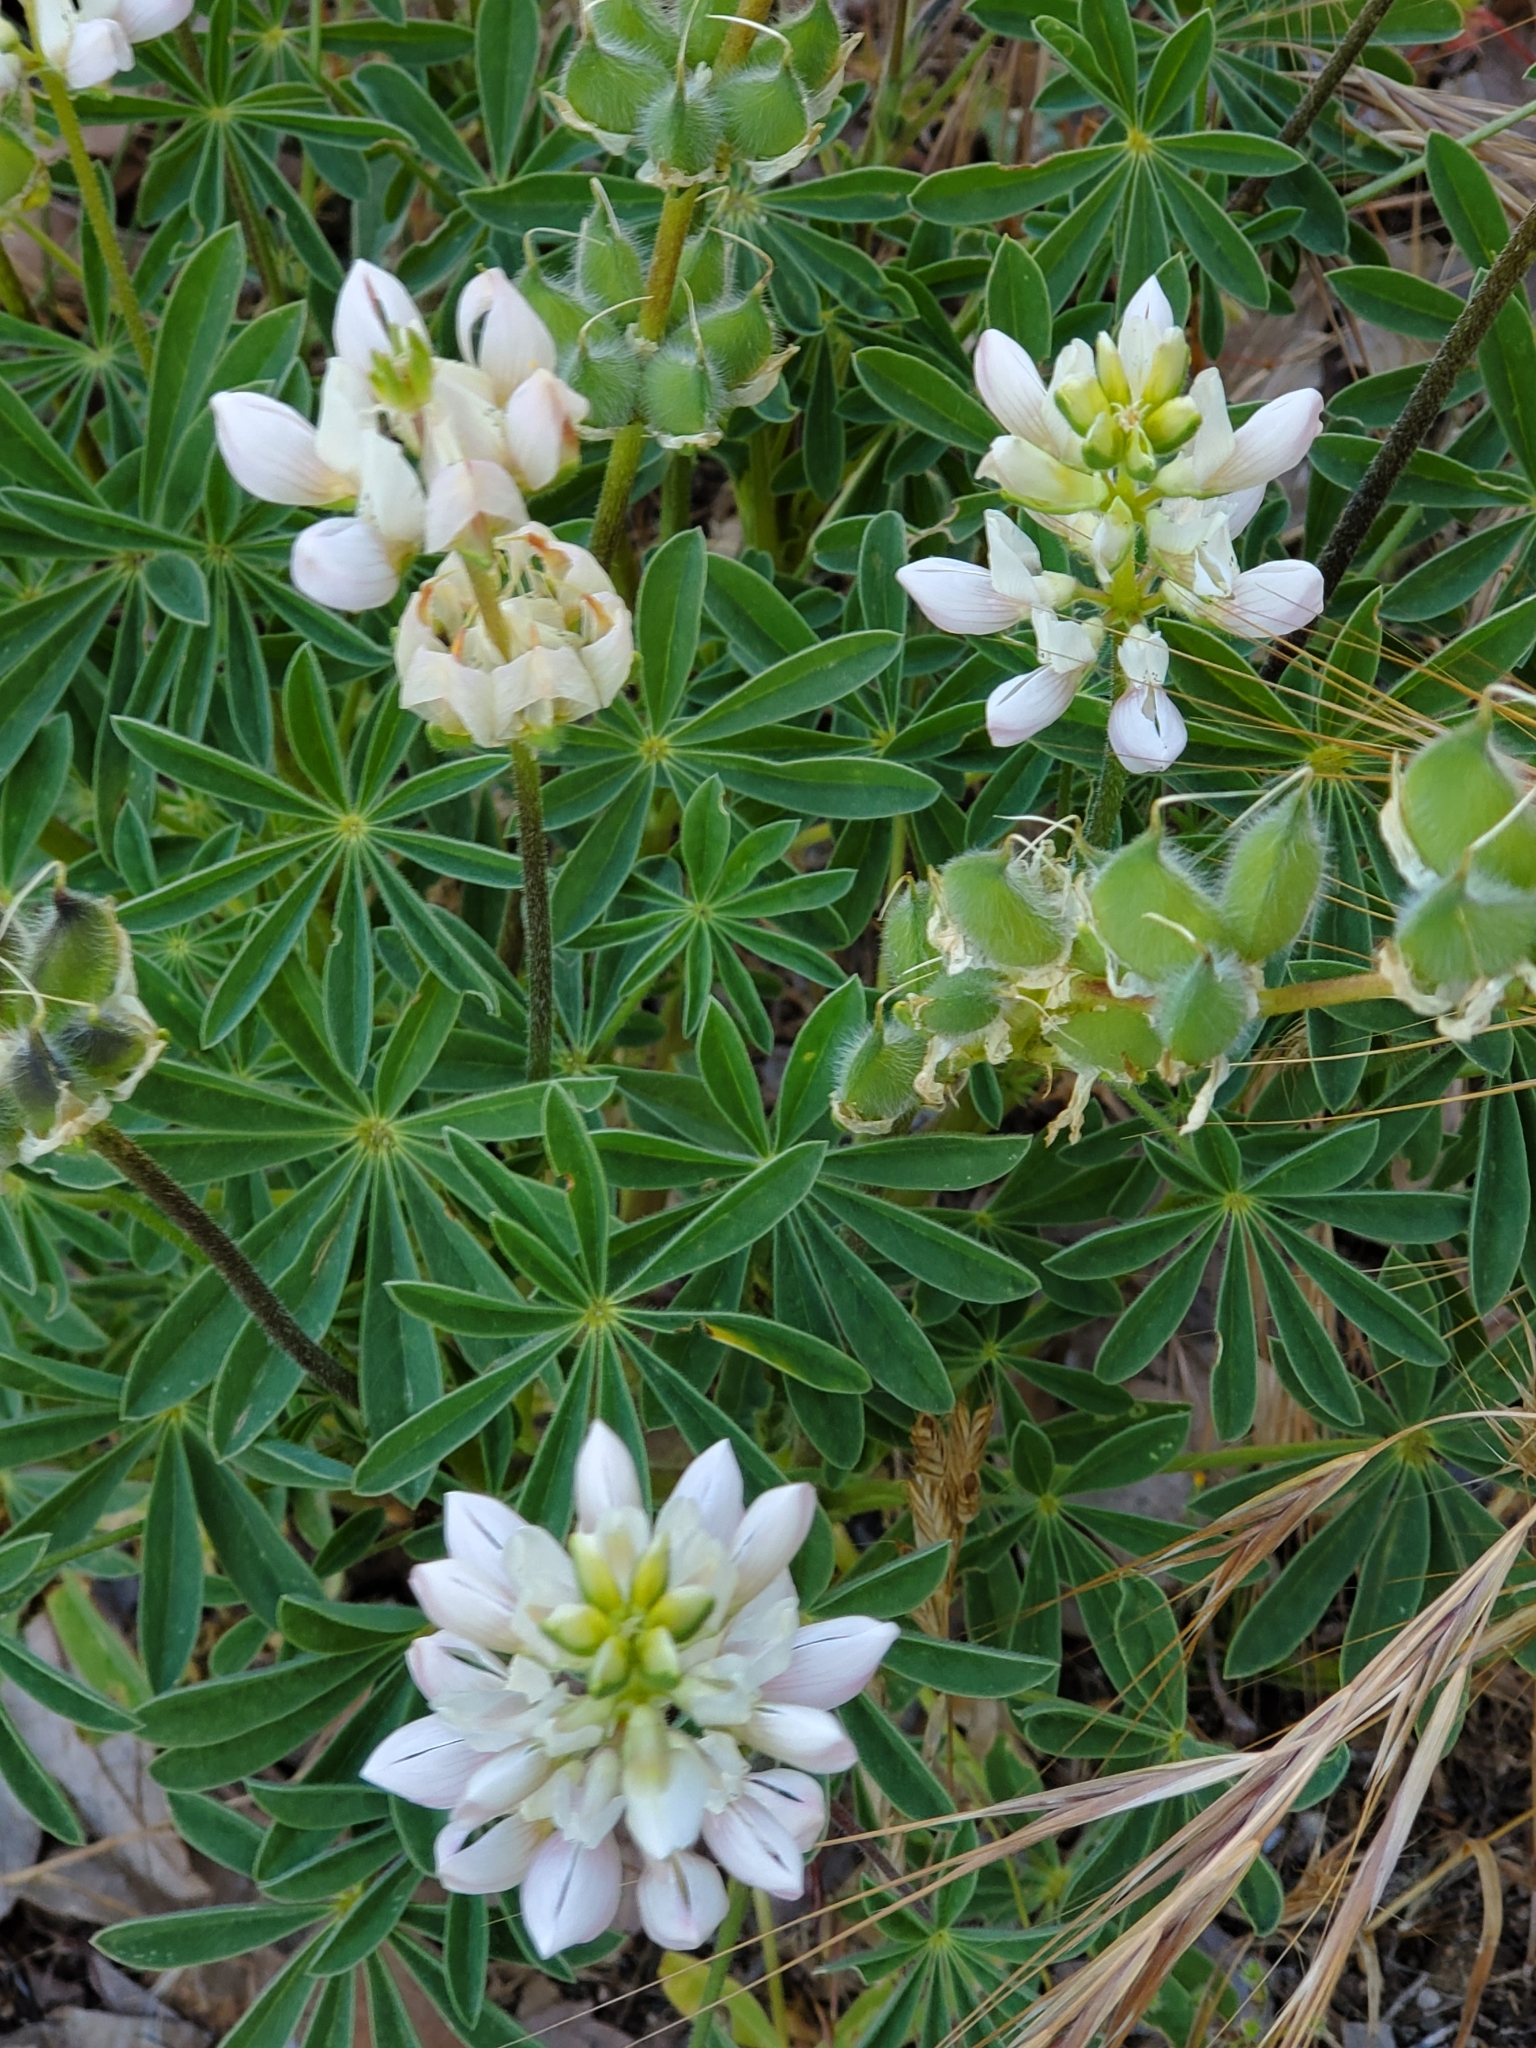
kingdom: Plantae
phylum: Tracheophyta
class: Magnoliopsida
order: Fabales
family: Fabaceae
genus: Lupinus
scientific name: Lupinus microcarpus
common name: Chick lupine
